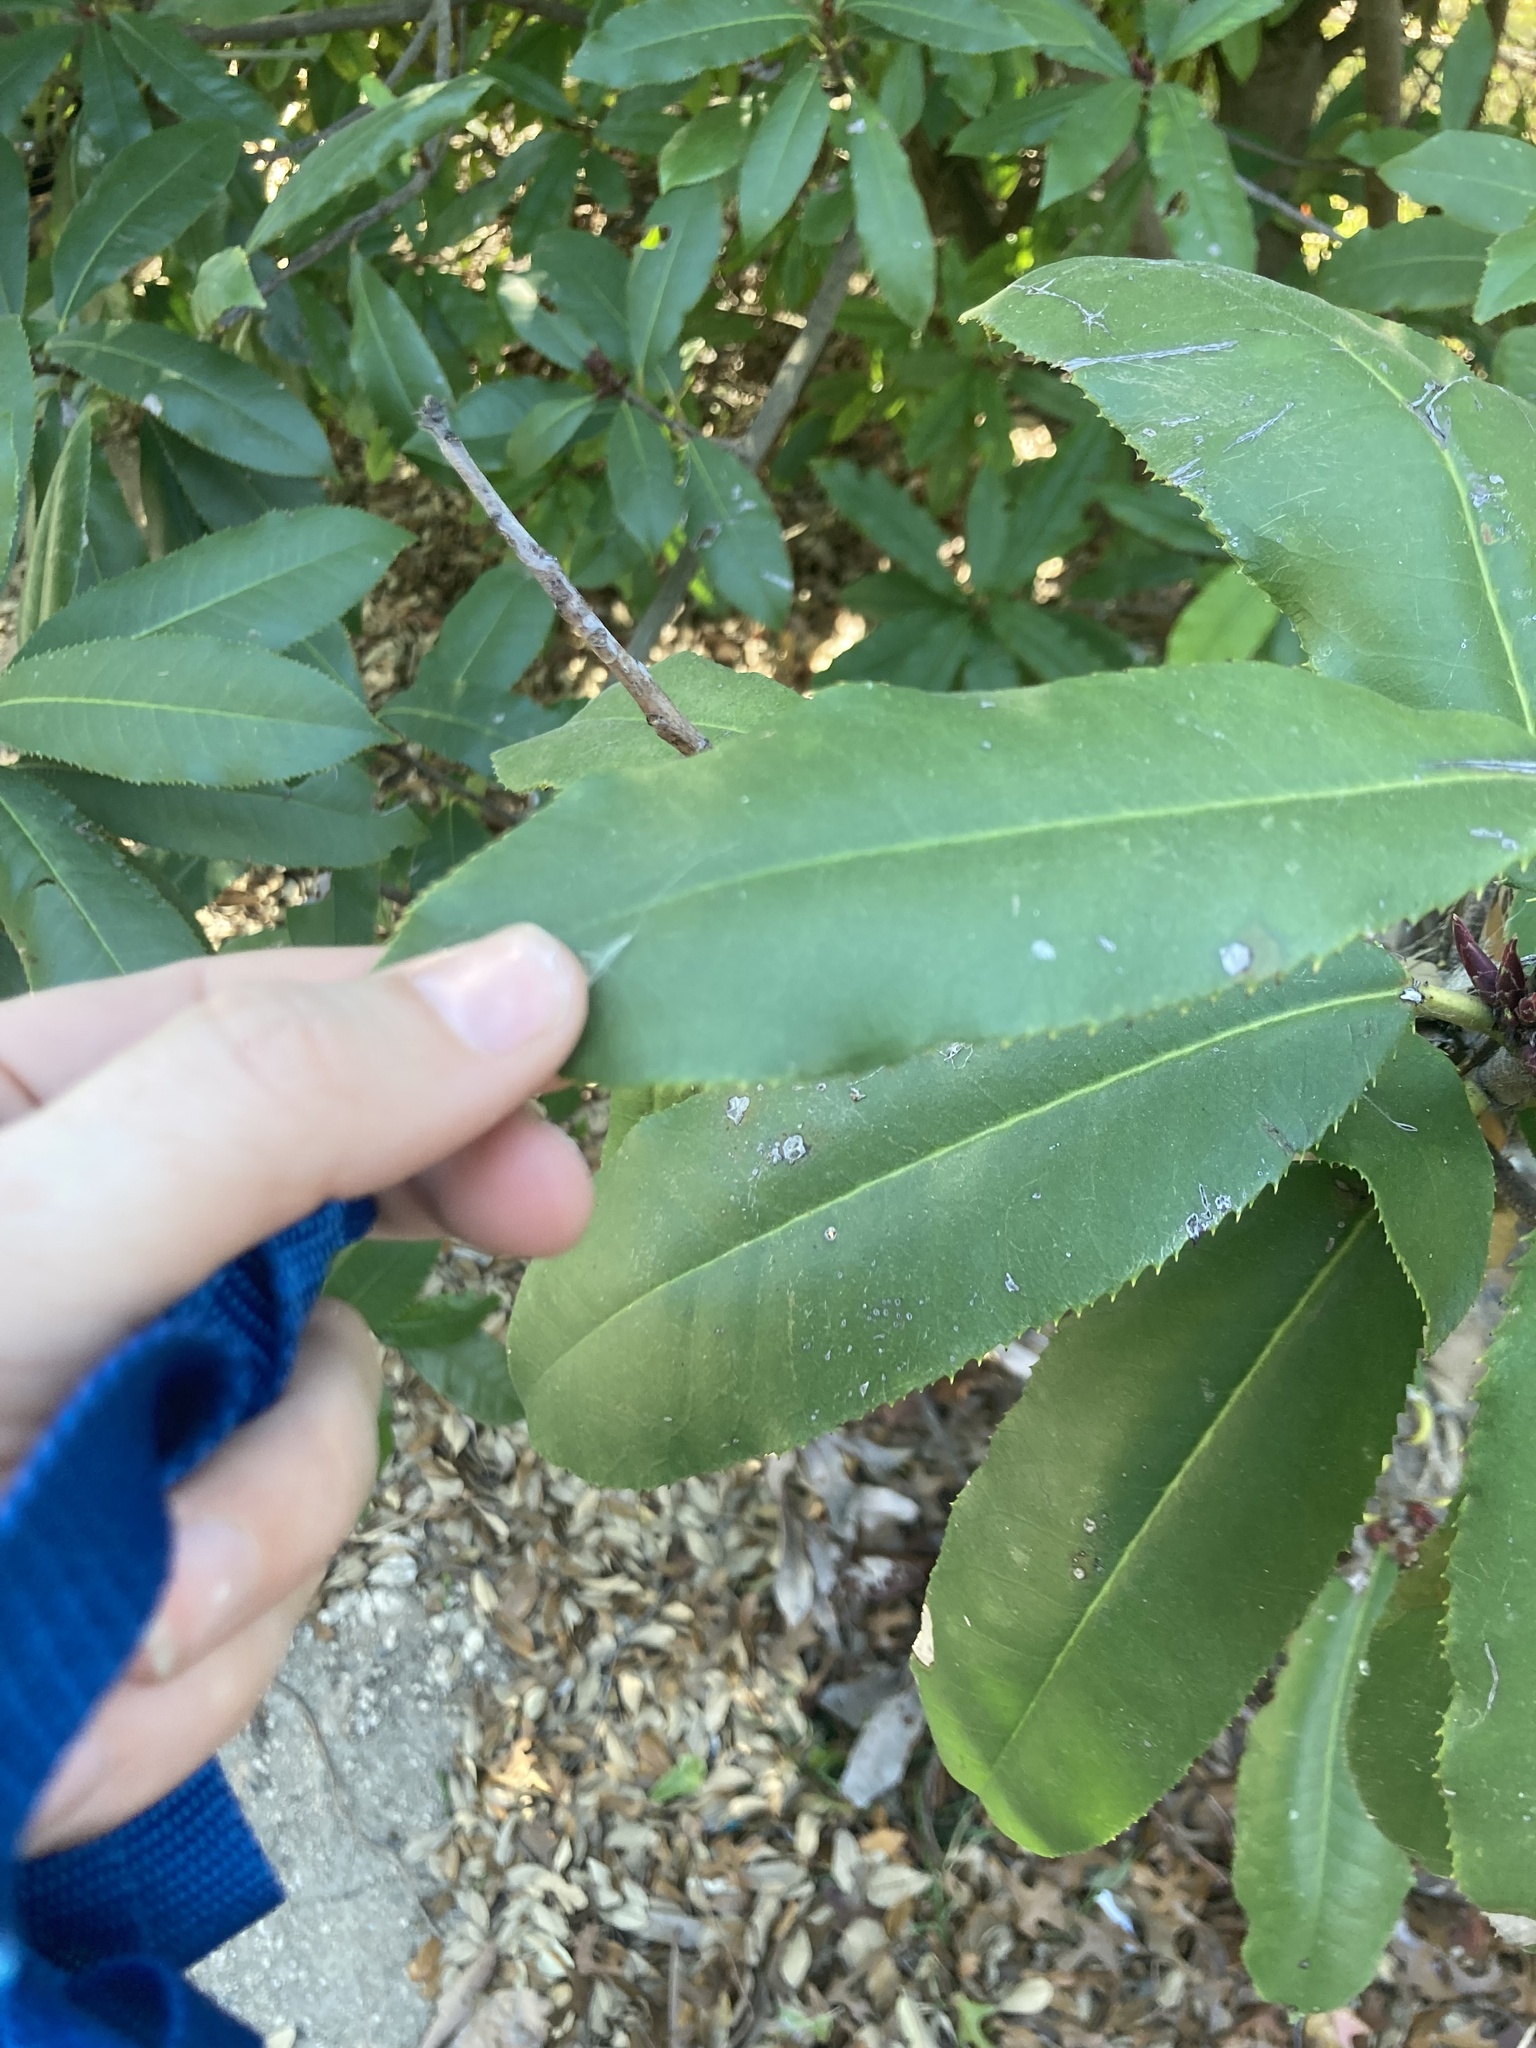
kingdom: Plantae
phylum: Tracheophyta
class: Magnoliopsida
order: Rosales
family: Rosaceae
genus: Photinia
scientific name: Photinia serratifolia
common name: Taiwanese photinia
